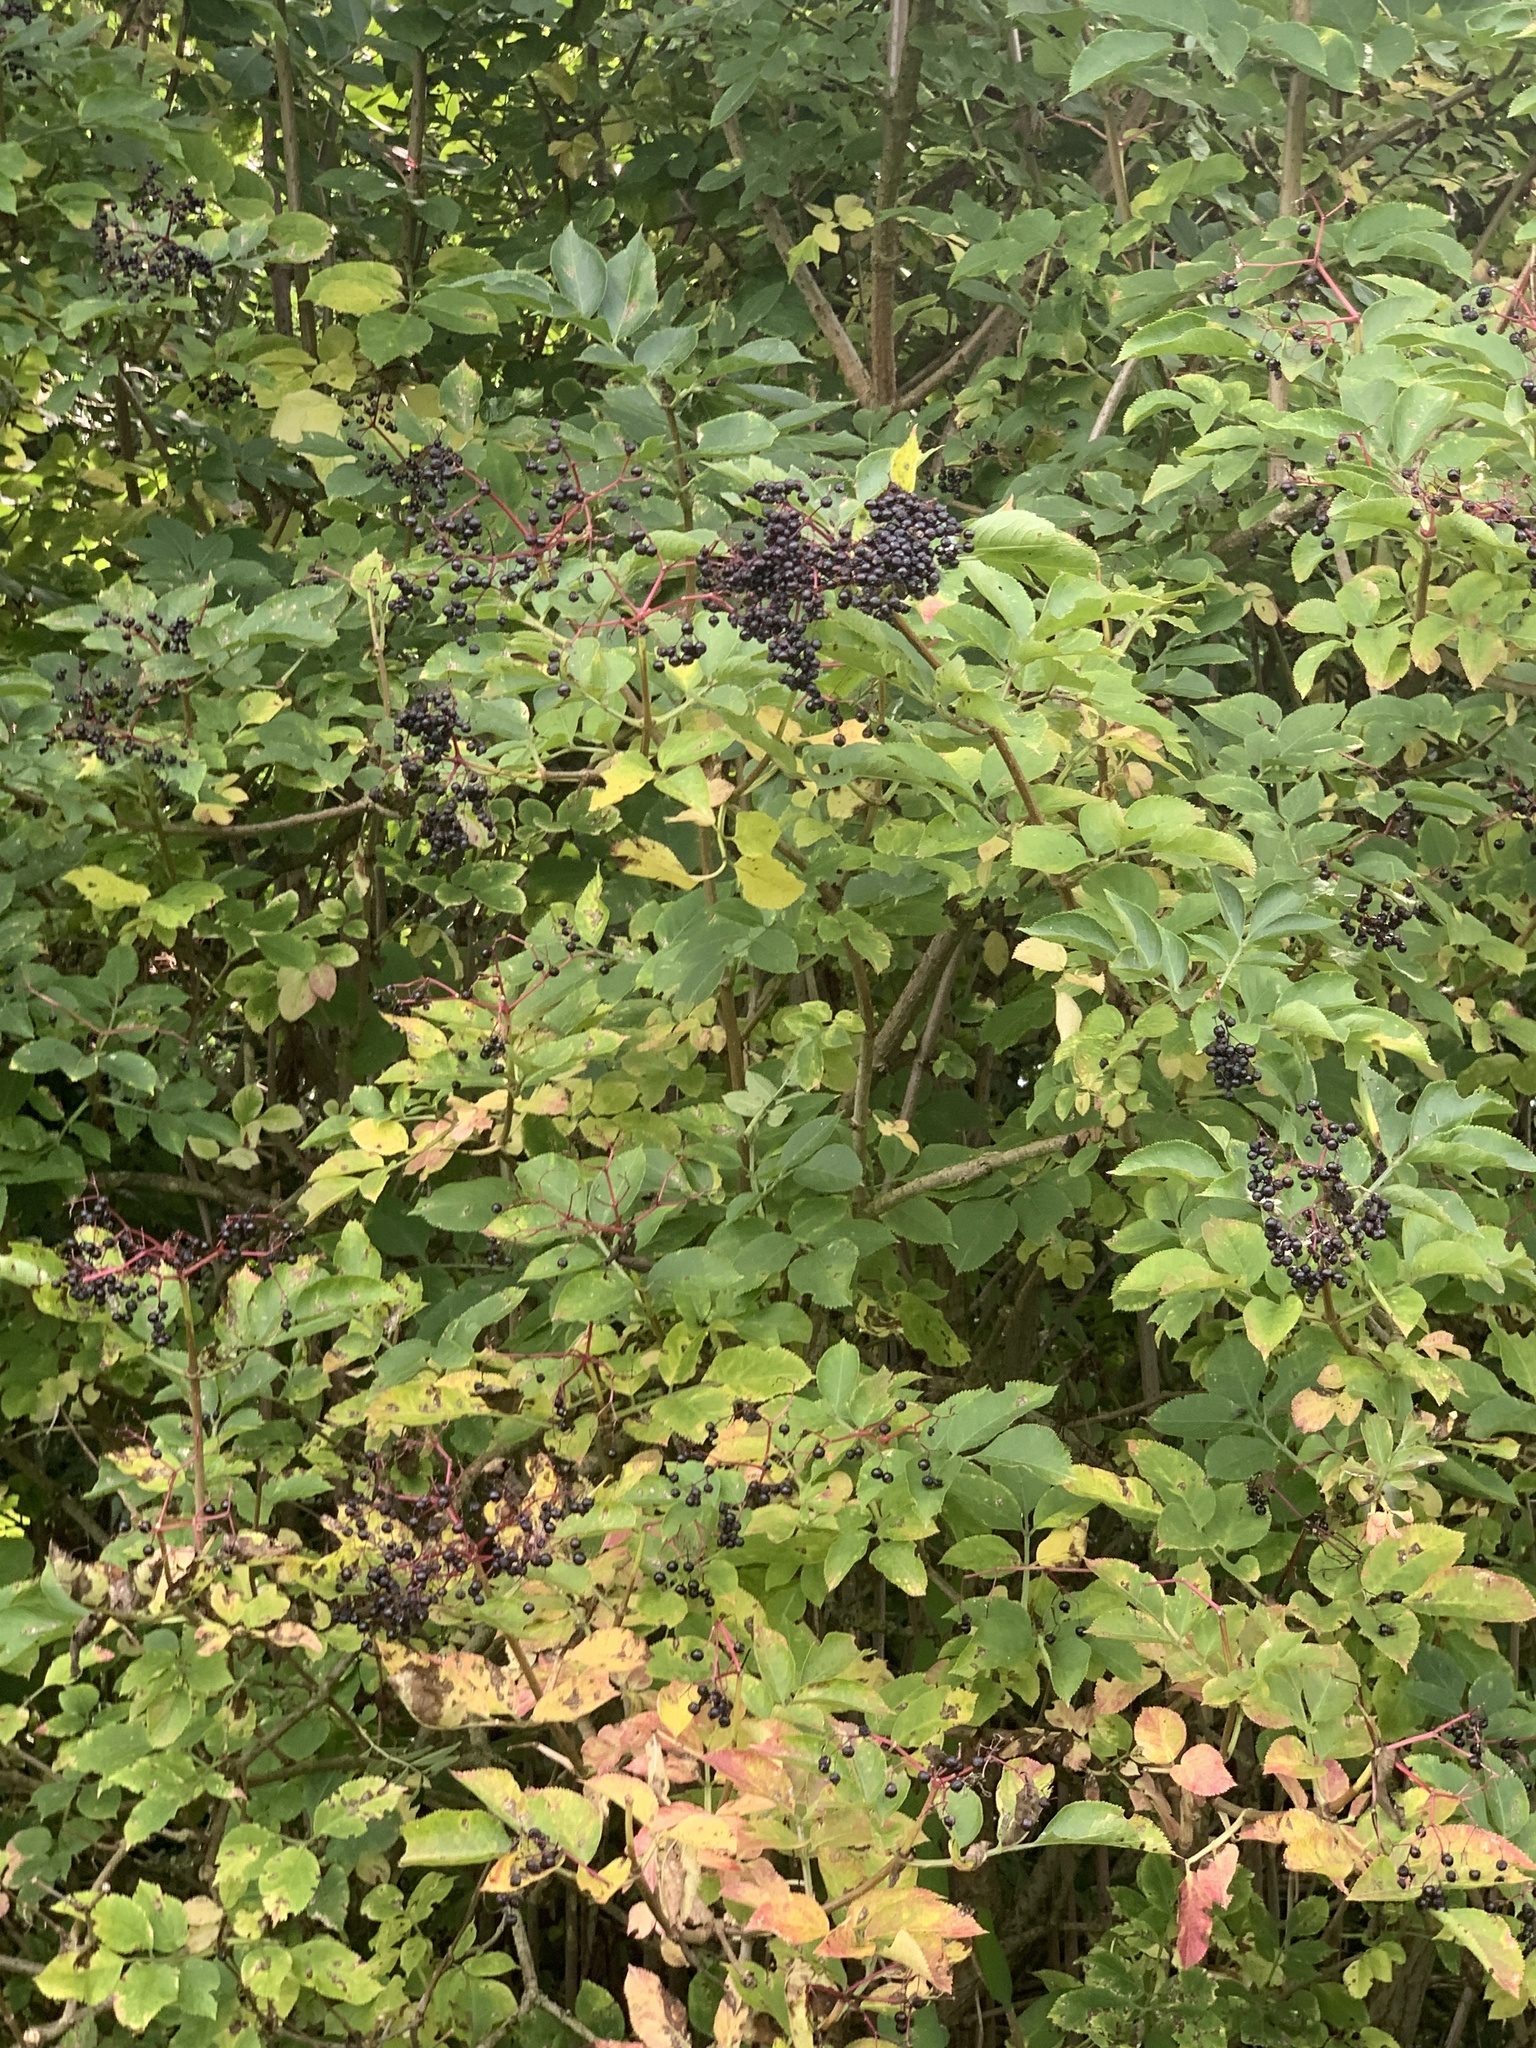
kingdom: Plantae
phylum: Tracheophyta
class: Magnoliopsida
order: Dipsacales
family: Viburnaceae
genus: Sambucus
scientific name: Sambucus nigra
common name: Elder
